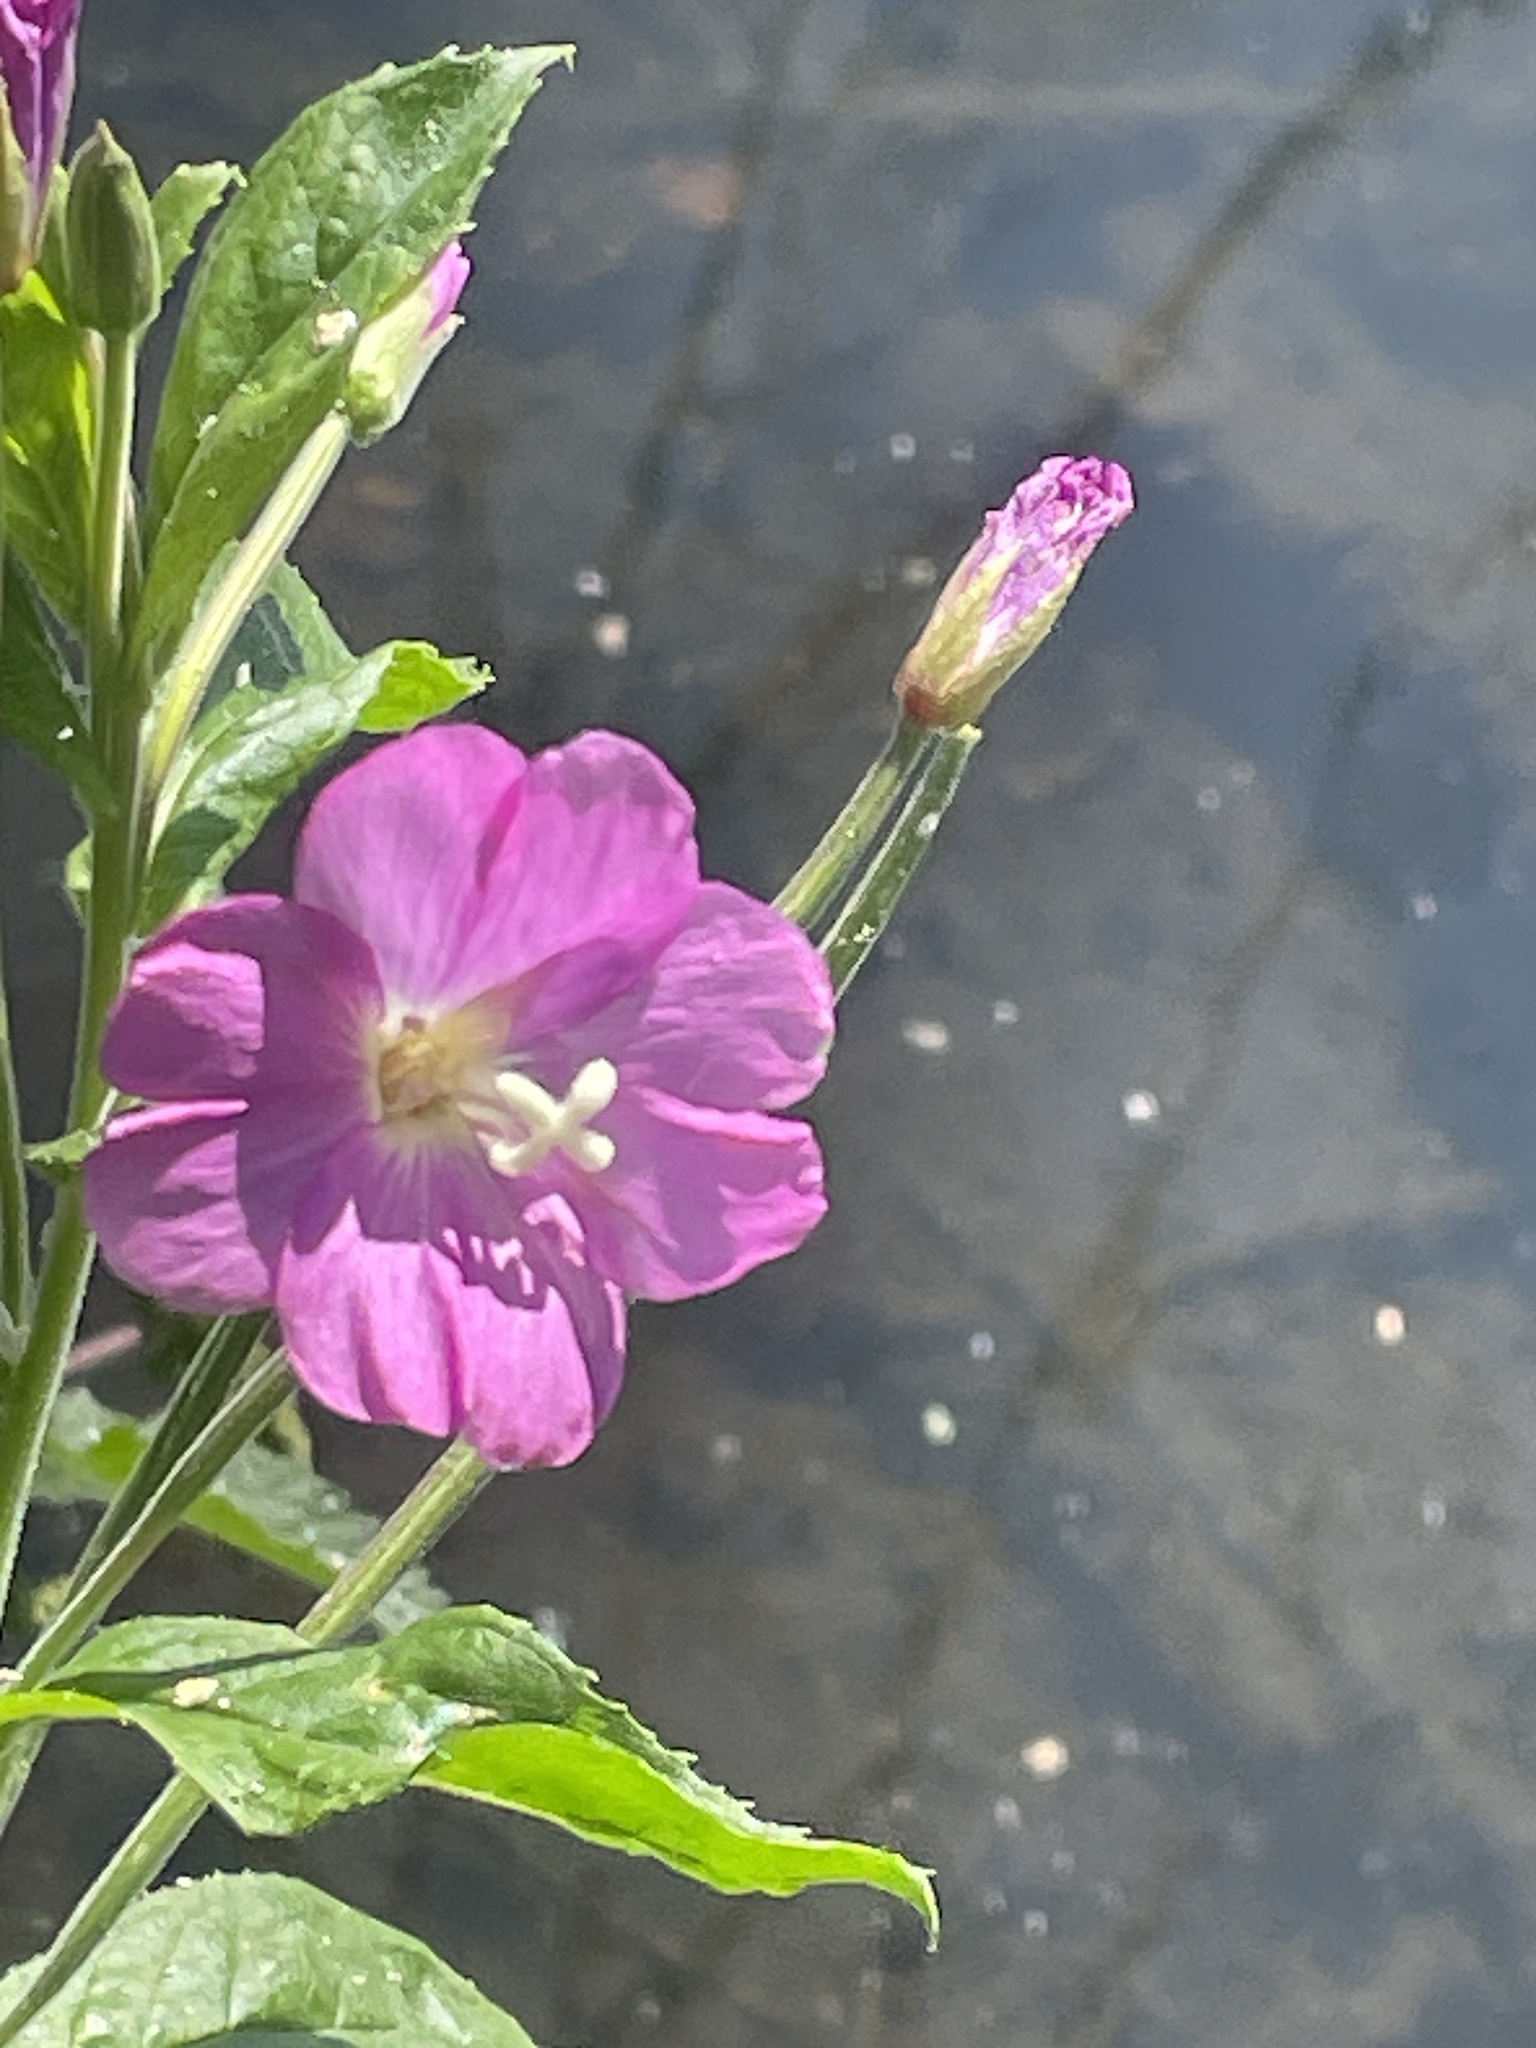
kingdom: Plantae
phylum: Tracheophyta
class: Magnoliopsida
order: Myrtales
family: Onagraceae
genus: Epilobium
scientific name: Epilobium hirsutum
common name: Great willowherb
